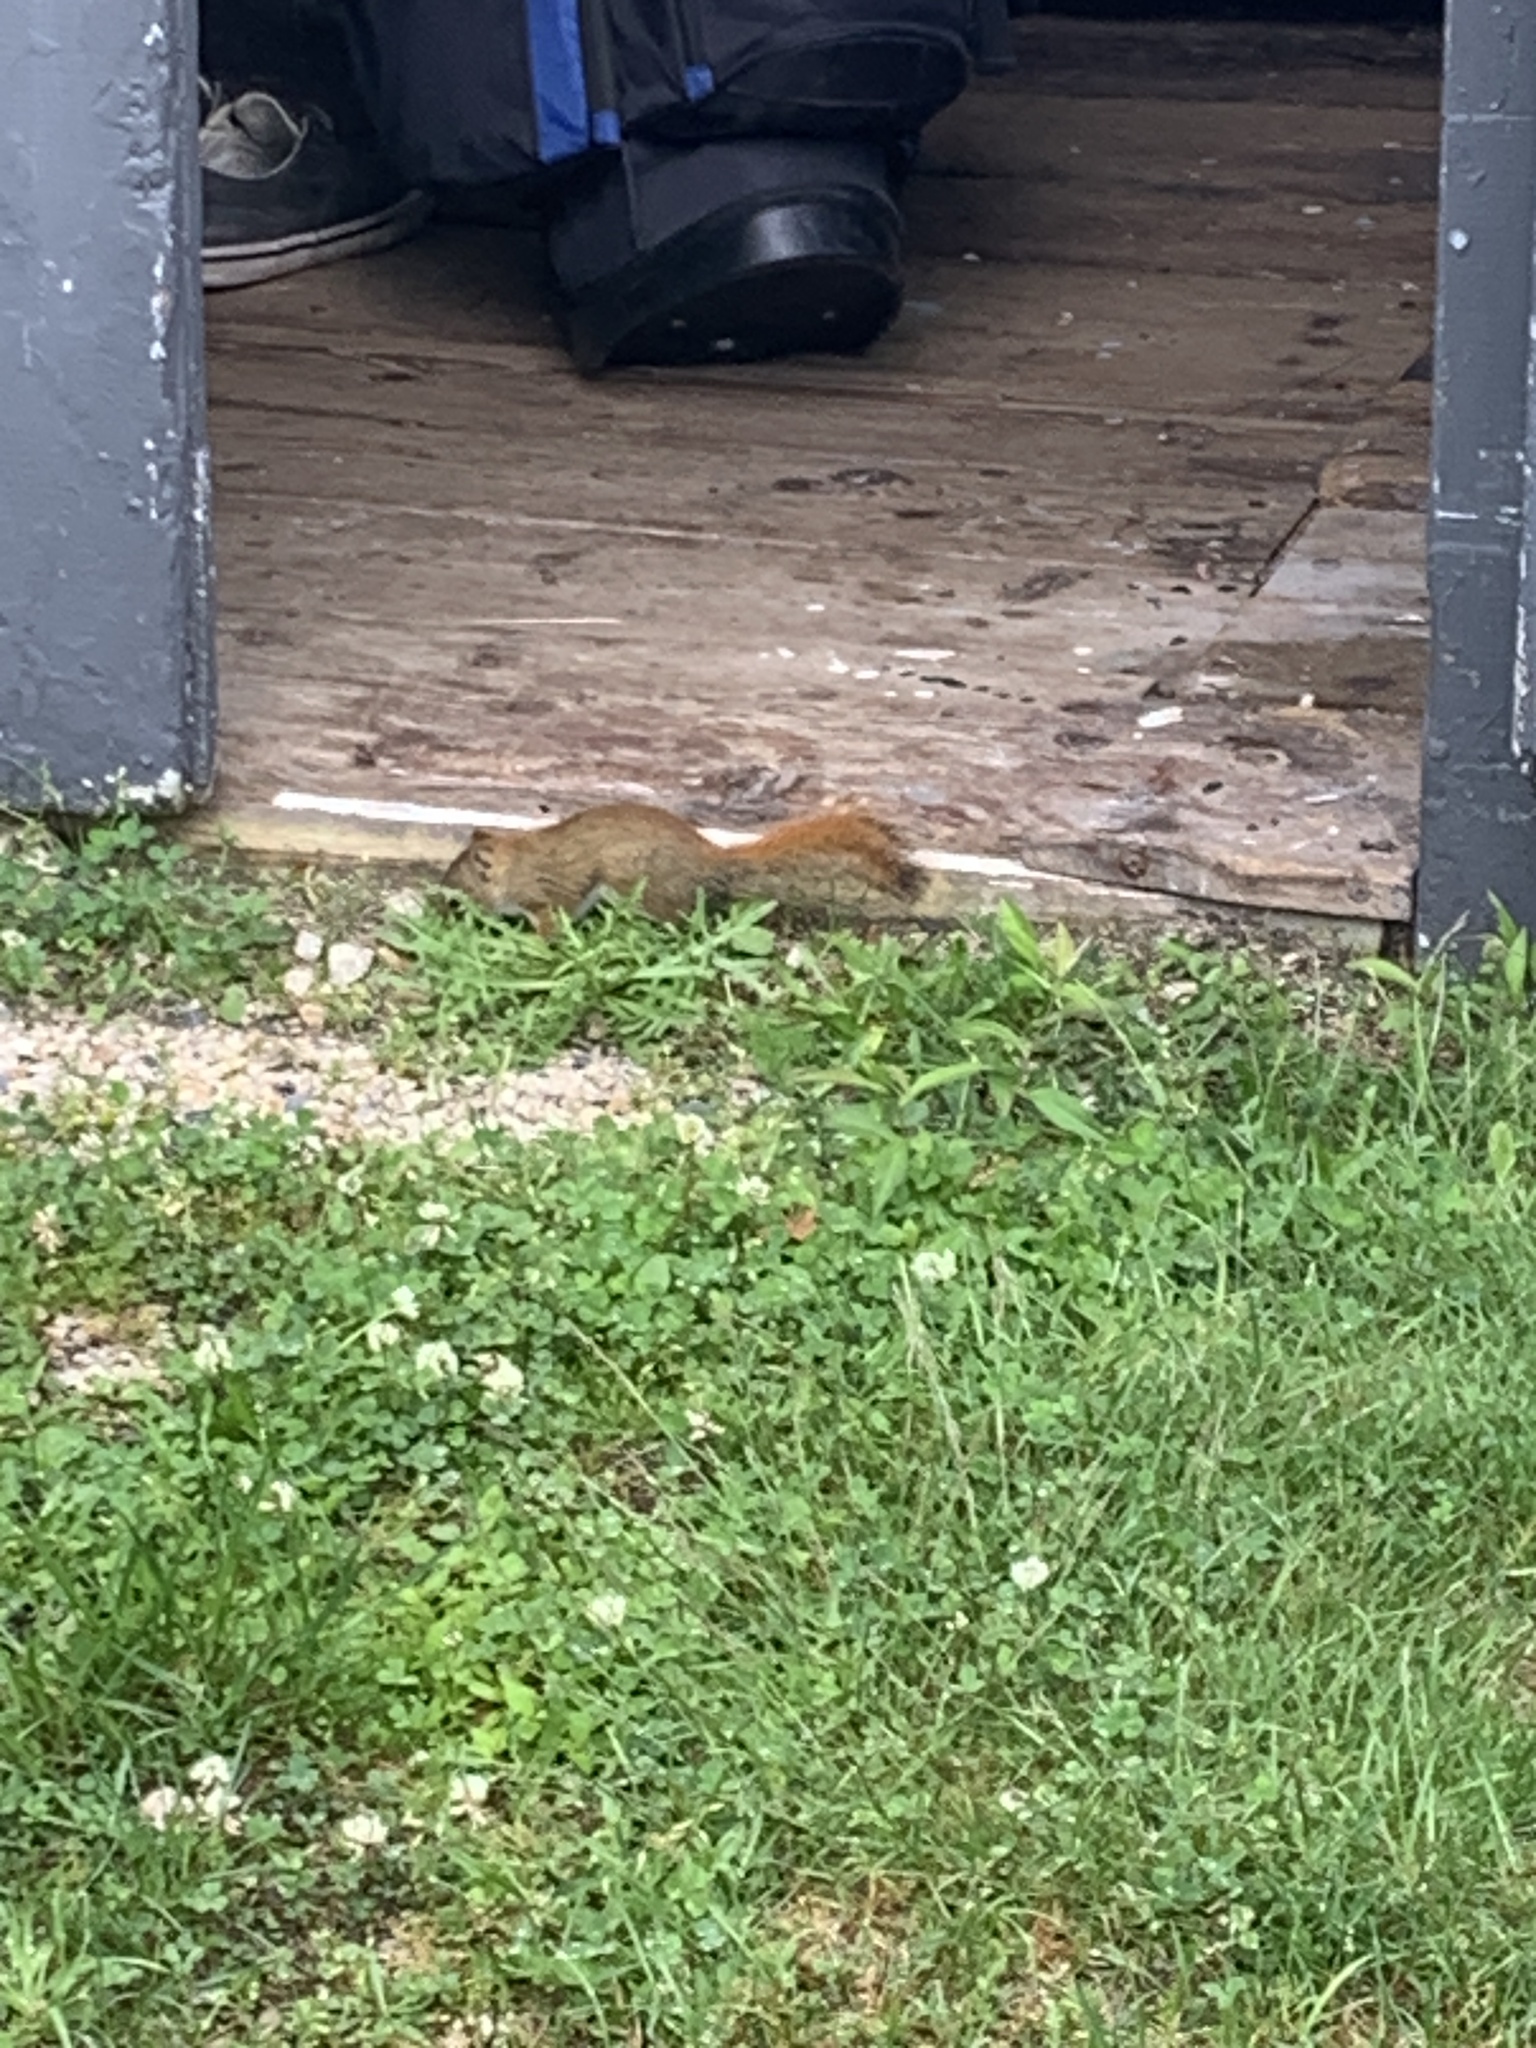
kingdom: Animalia
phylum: Chordata
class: Mammalia
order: Rodentia
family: Sciuridae
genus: Tamiasciurus
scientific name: Tamiasciurus hudsonicus
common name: Red squirrel
